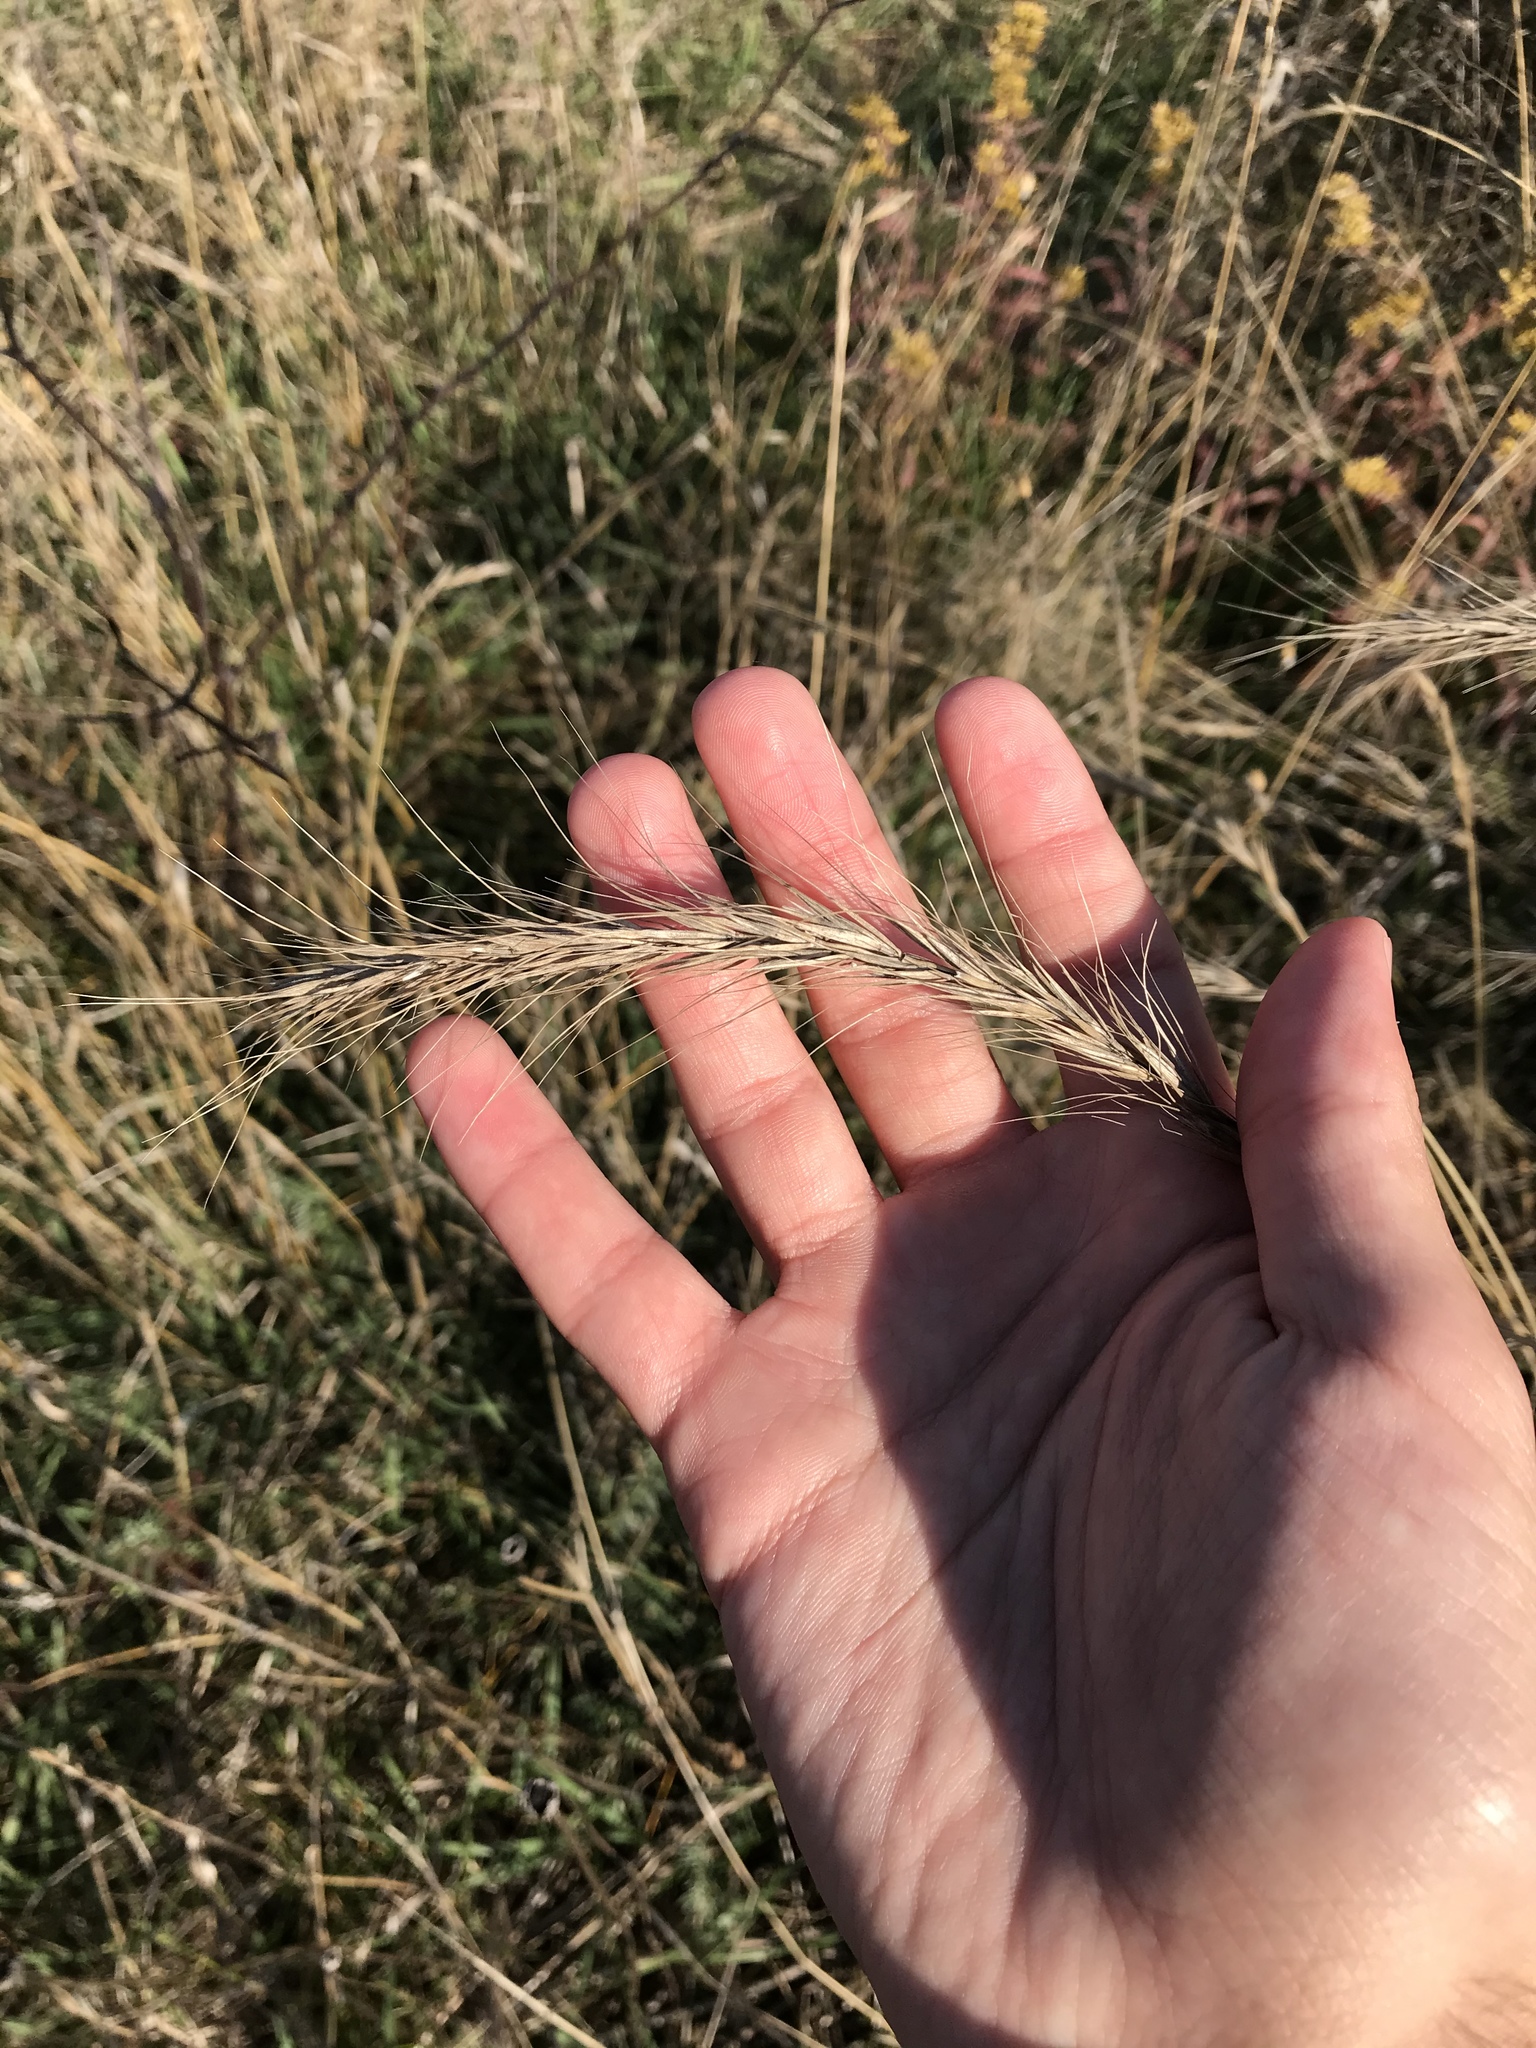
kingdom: Plantae
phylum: Tracheophyta
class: Liliopsida
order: Poales
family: Poaceae
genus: Elymus
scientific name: Elymus canadensis
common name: Canada wild rye
